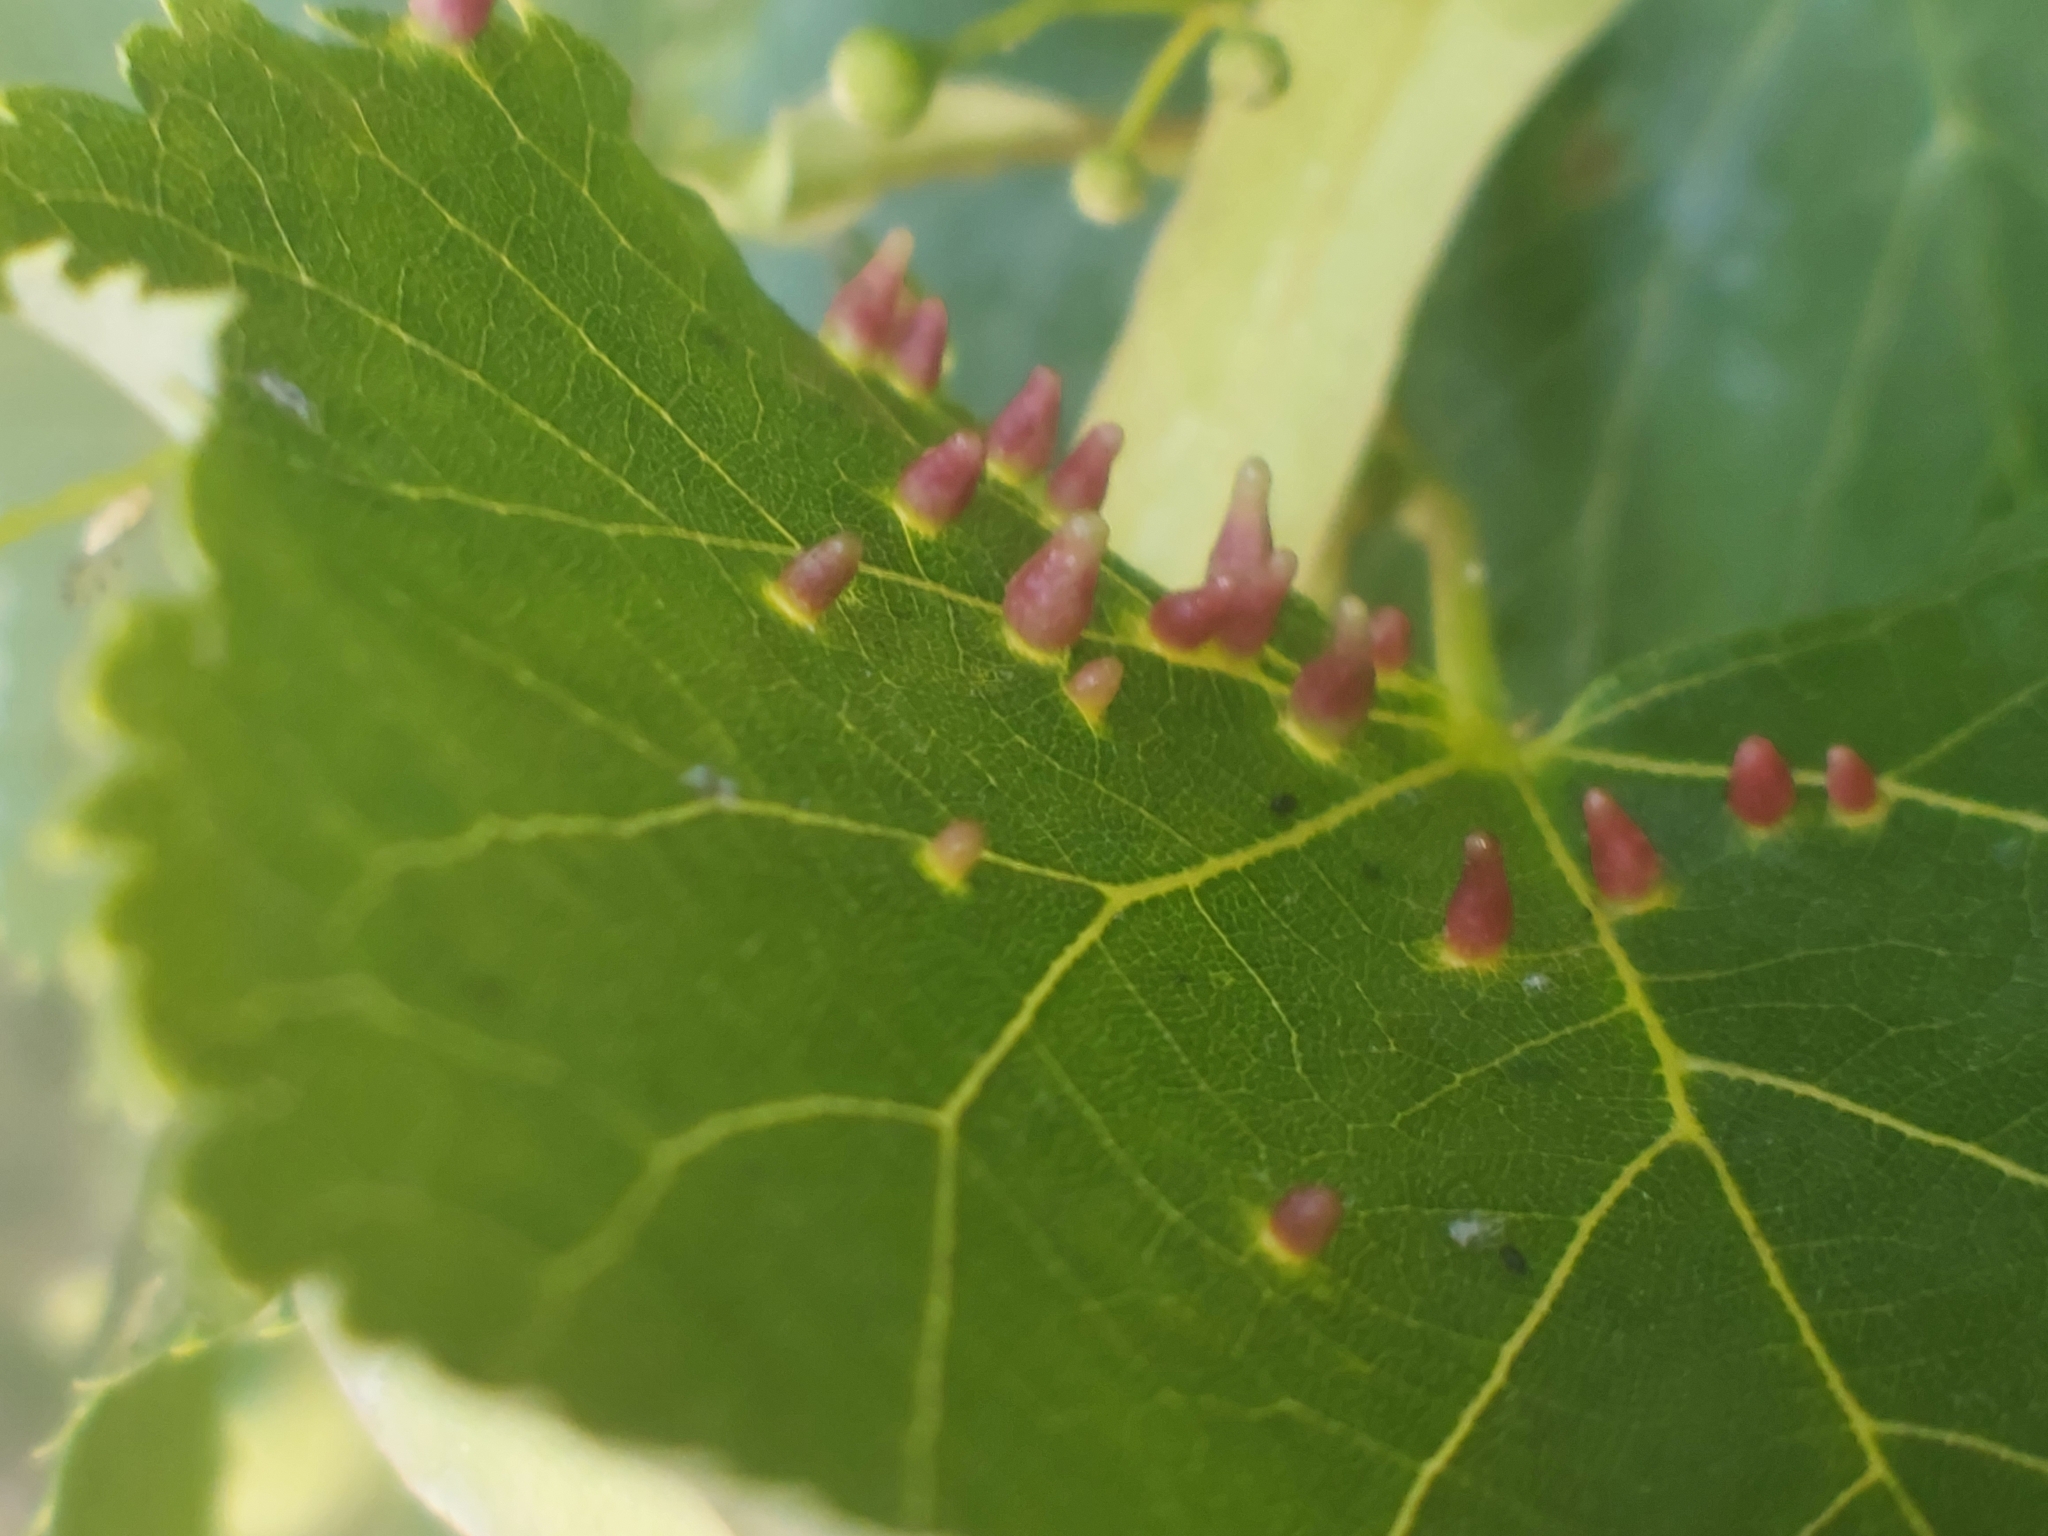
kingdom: Animalia
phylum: Arthropoda
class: Arachnida
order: Trombidiformes
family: Eriophyidae
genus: Eriophyes
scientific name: Eriophyes tiliae
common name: Red nail gall mite
